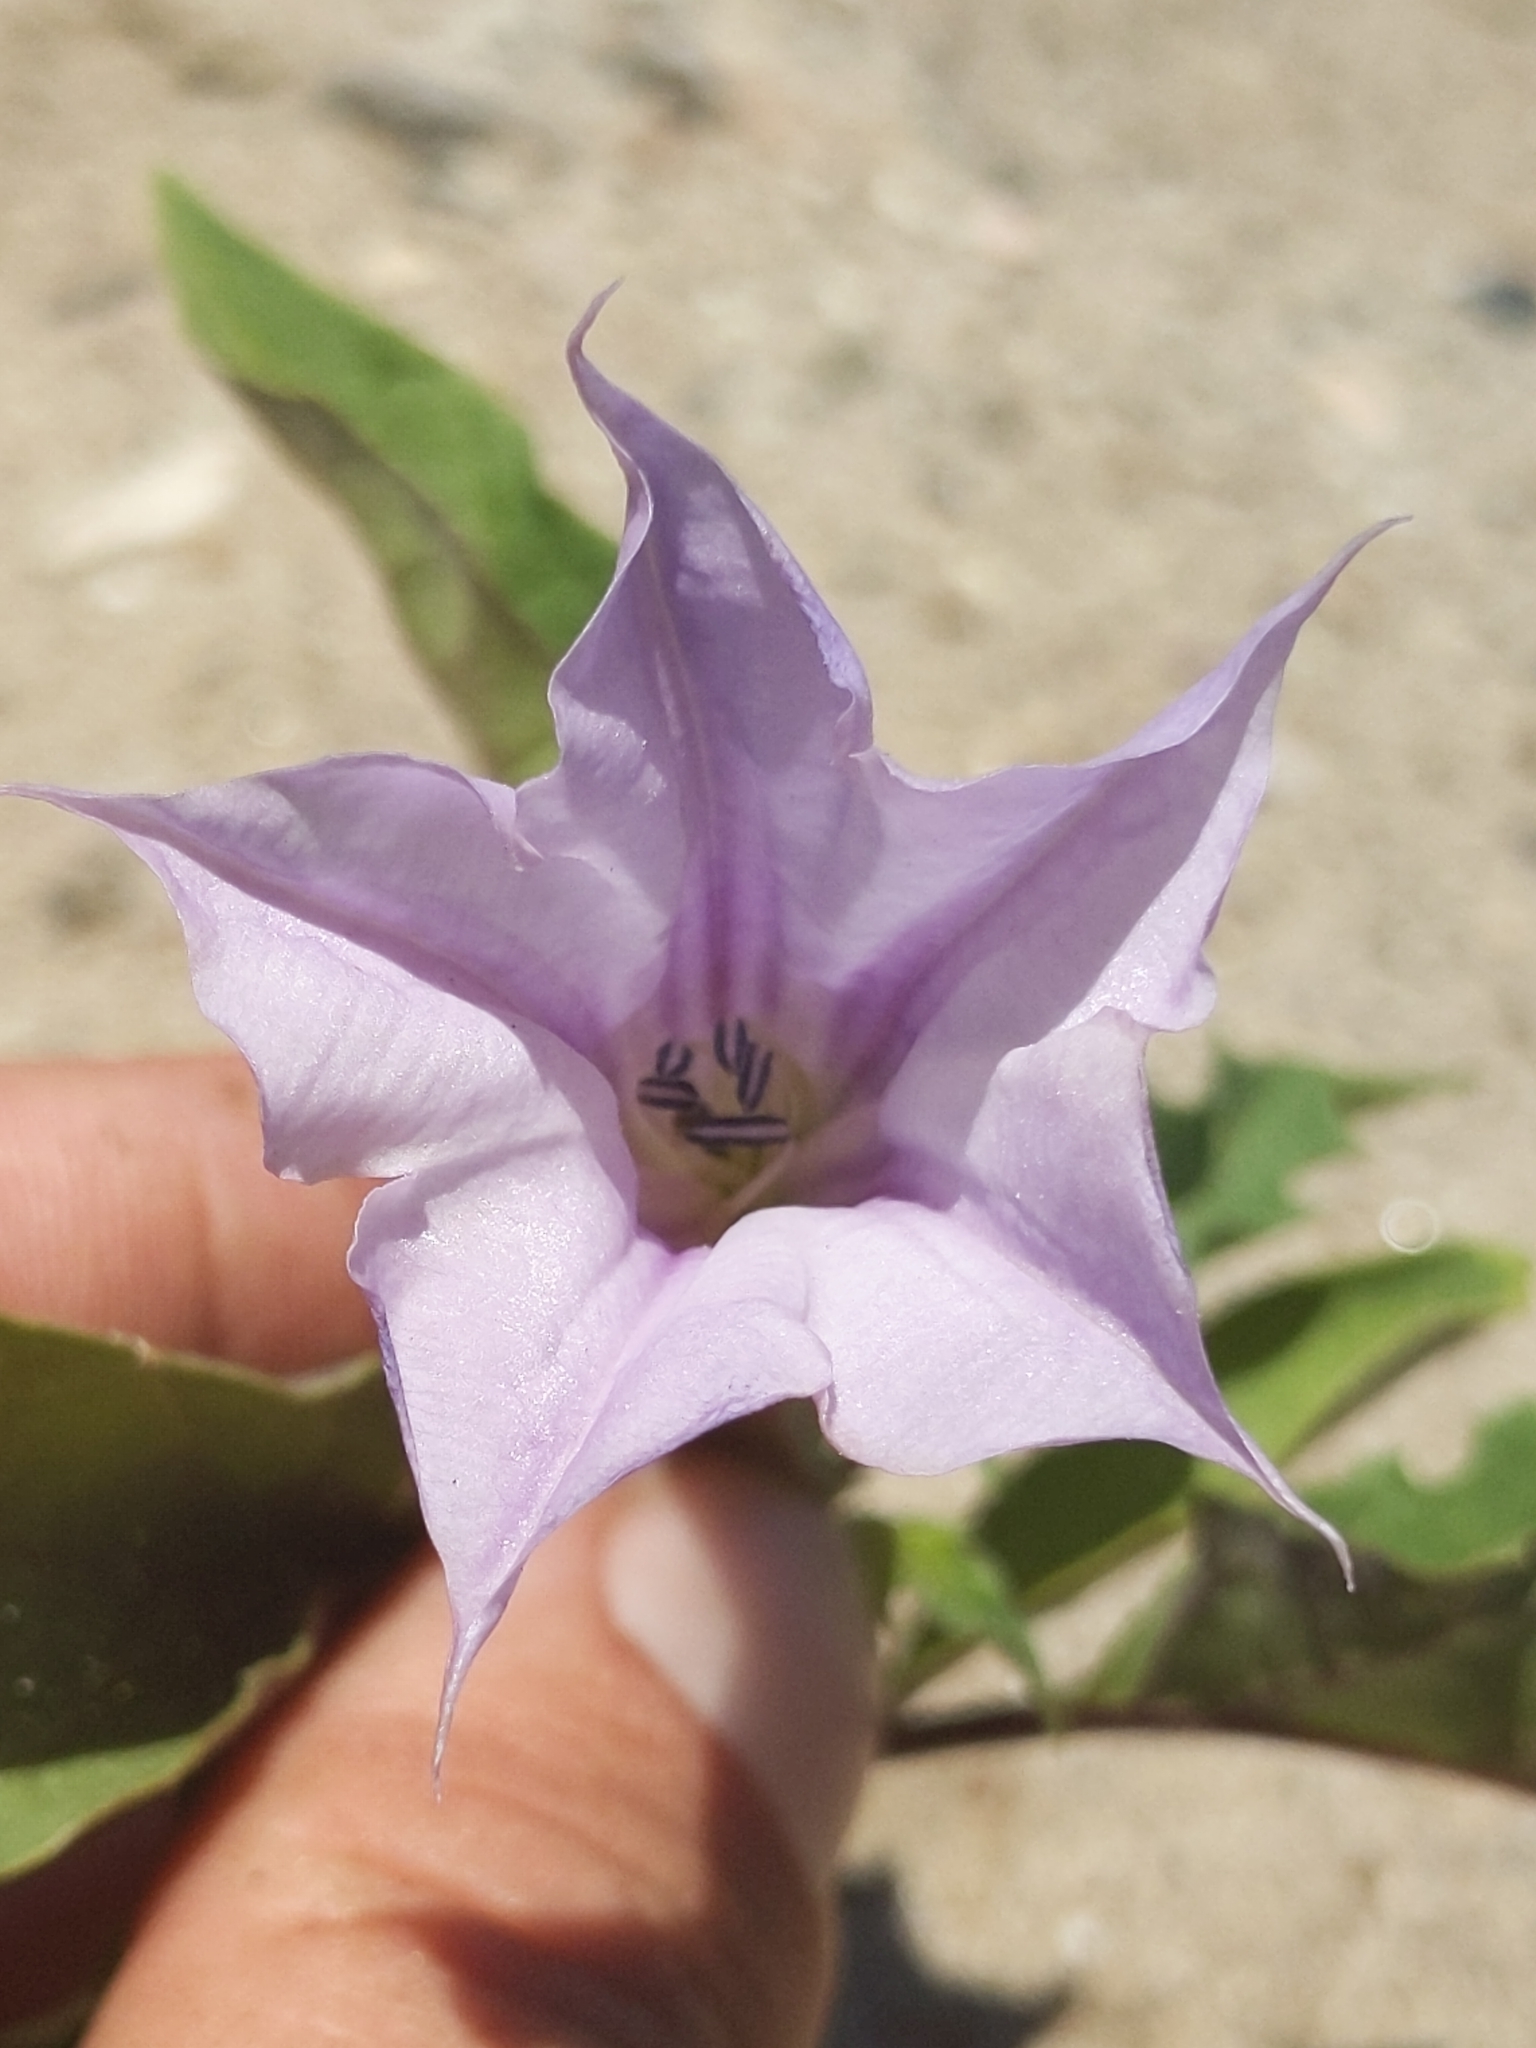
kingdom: Plantae
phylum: Tracheophyta
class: Magnoliopsida
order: Solanales
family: Solanaceae
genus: Datura
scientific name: Datura stramonium
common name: Thorn-apple
